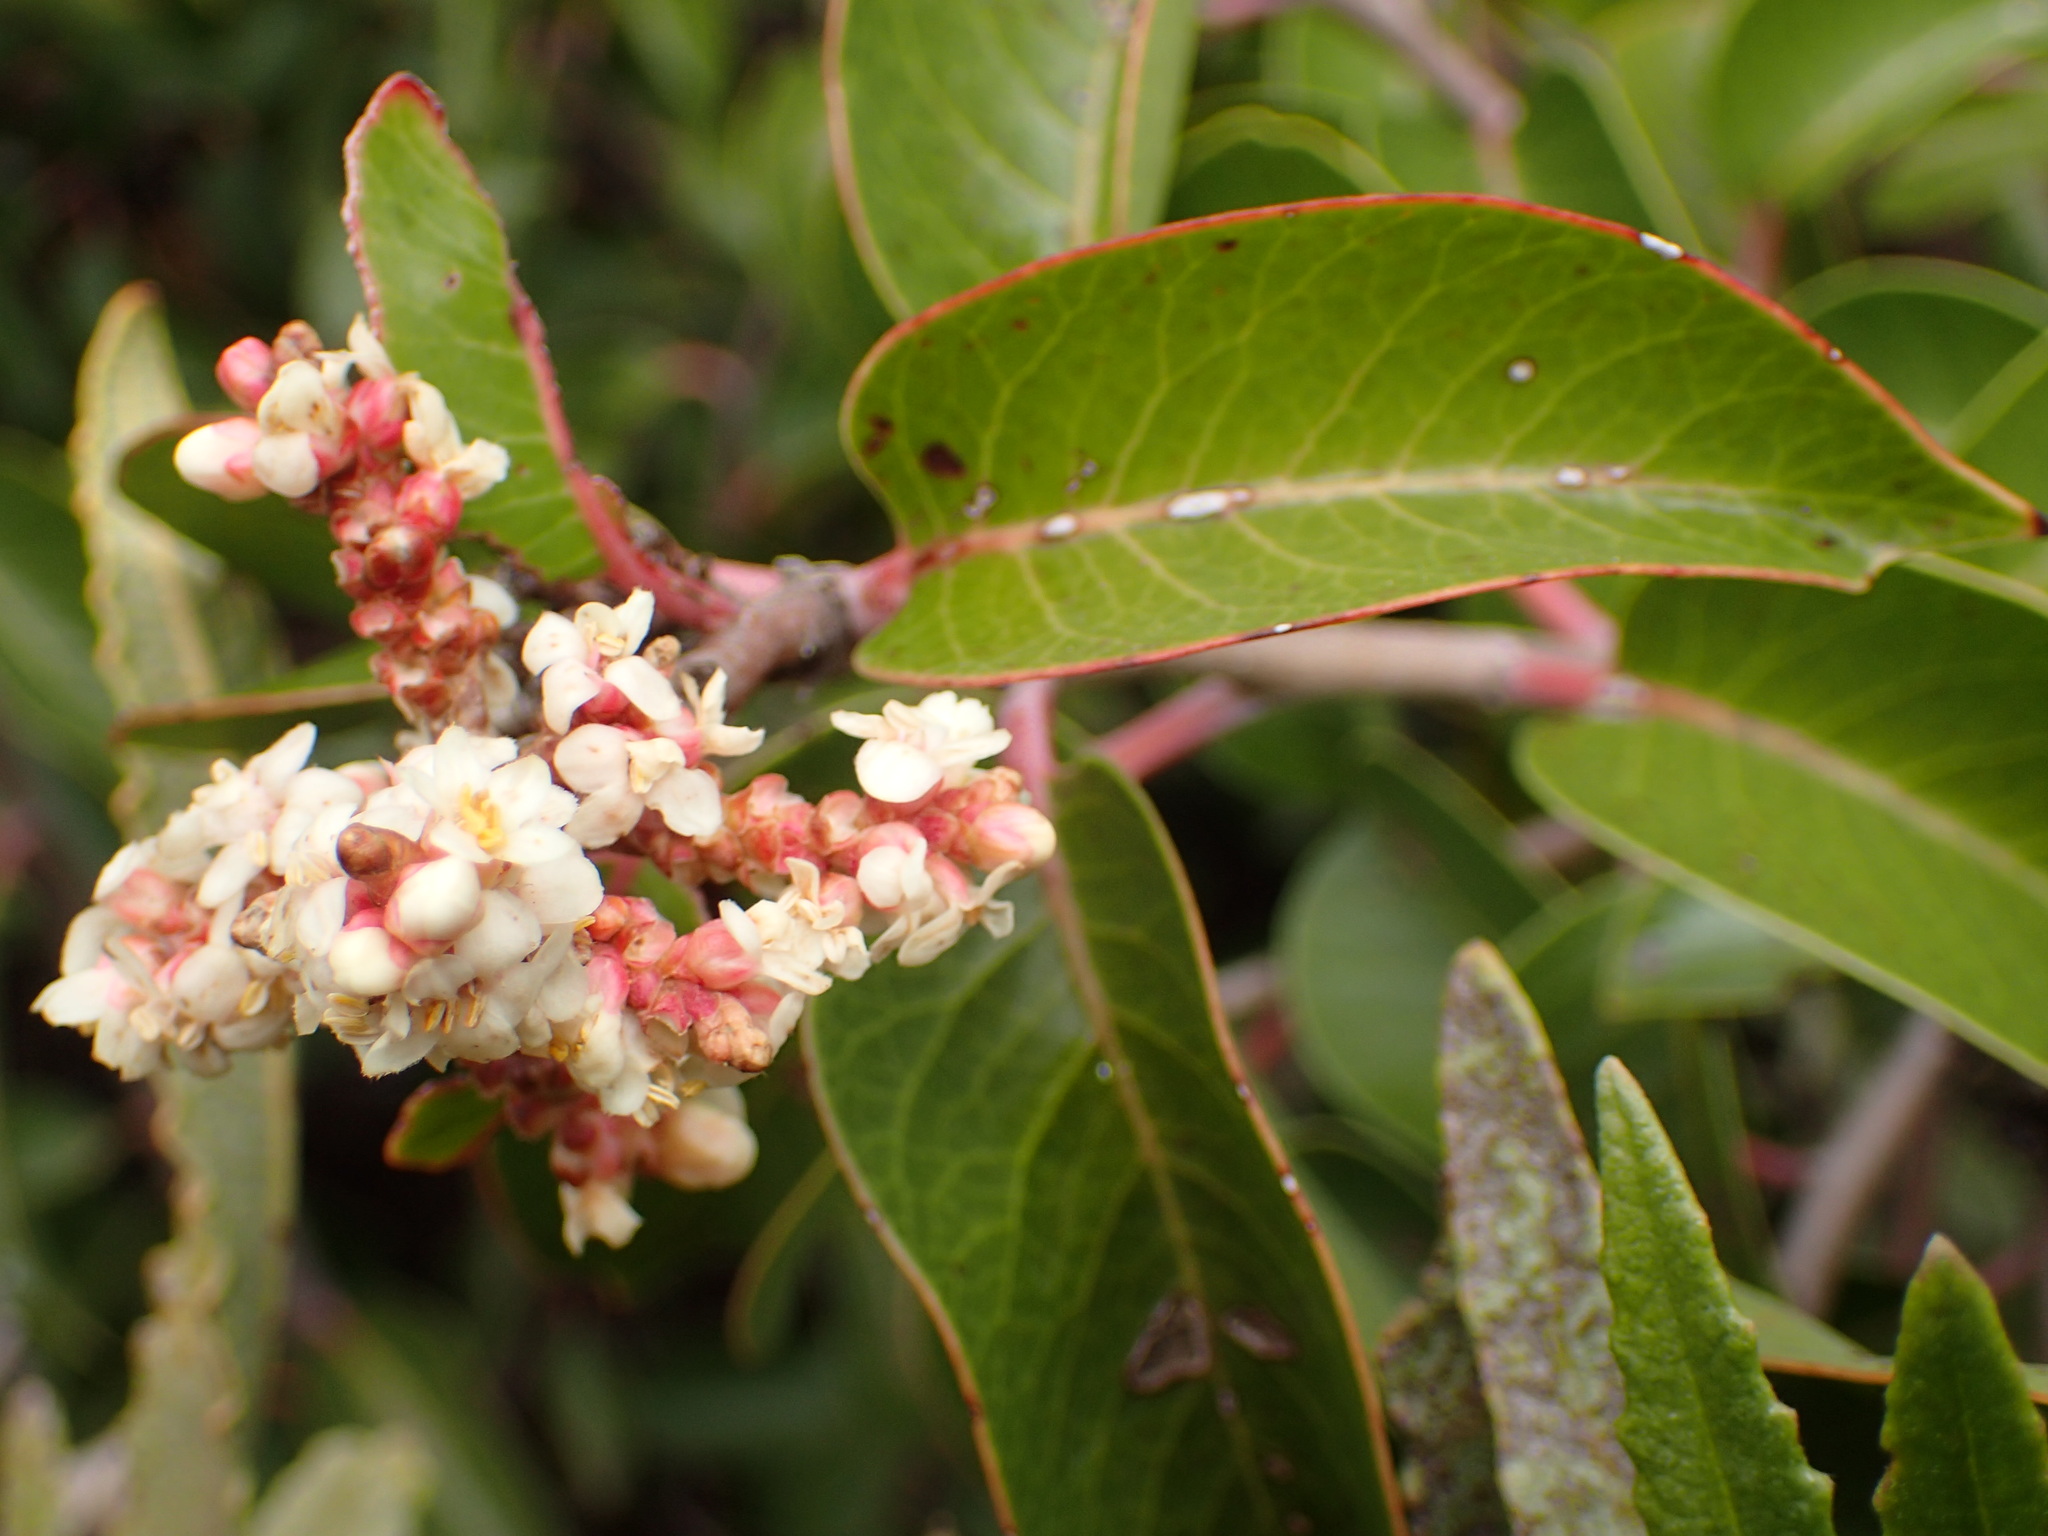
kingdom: Plantae
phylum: Tracheophyta
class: Magnoliopsida
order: Sapindales
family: Anacardiaceae
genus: Rhus
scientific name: Rhus ovata
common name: Sugar sumac
